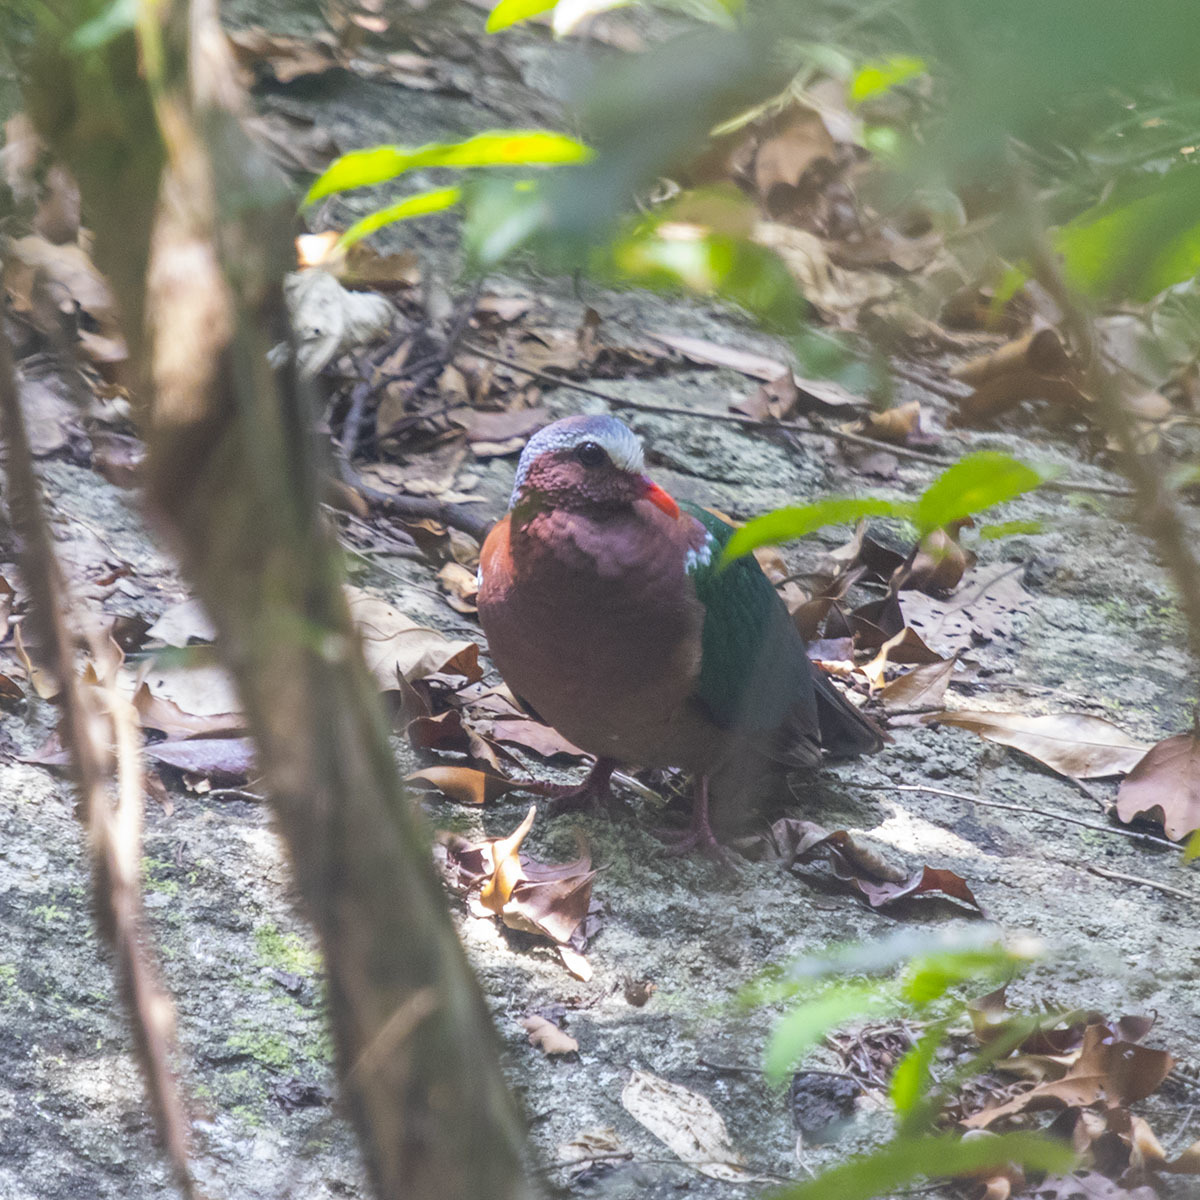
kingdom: Animalia
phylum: Chordata
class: Aves
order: Columbiformes
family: Columbidae
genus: Chalcophaps
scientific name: Chalcophaps indica
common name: Common emerald dove
